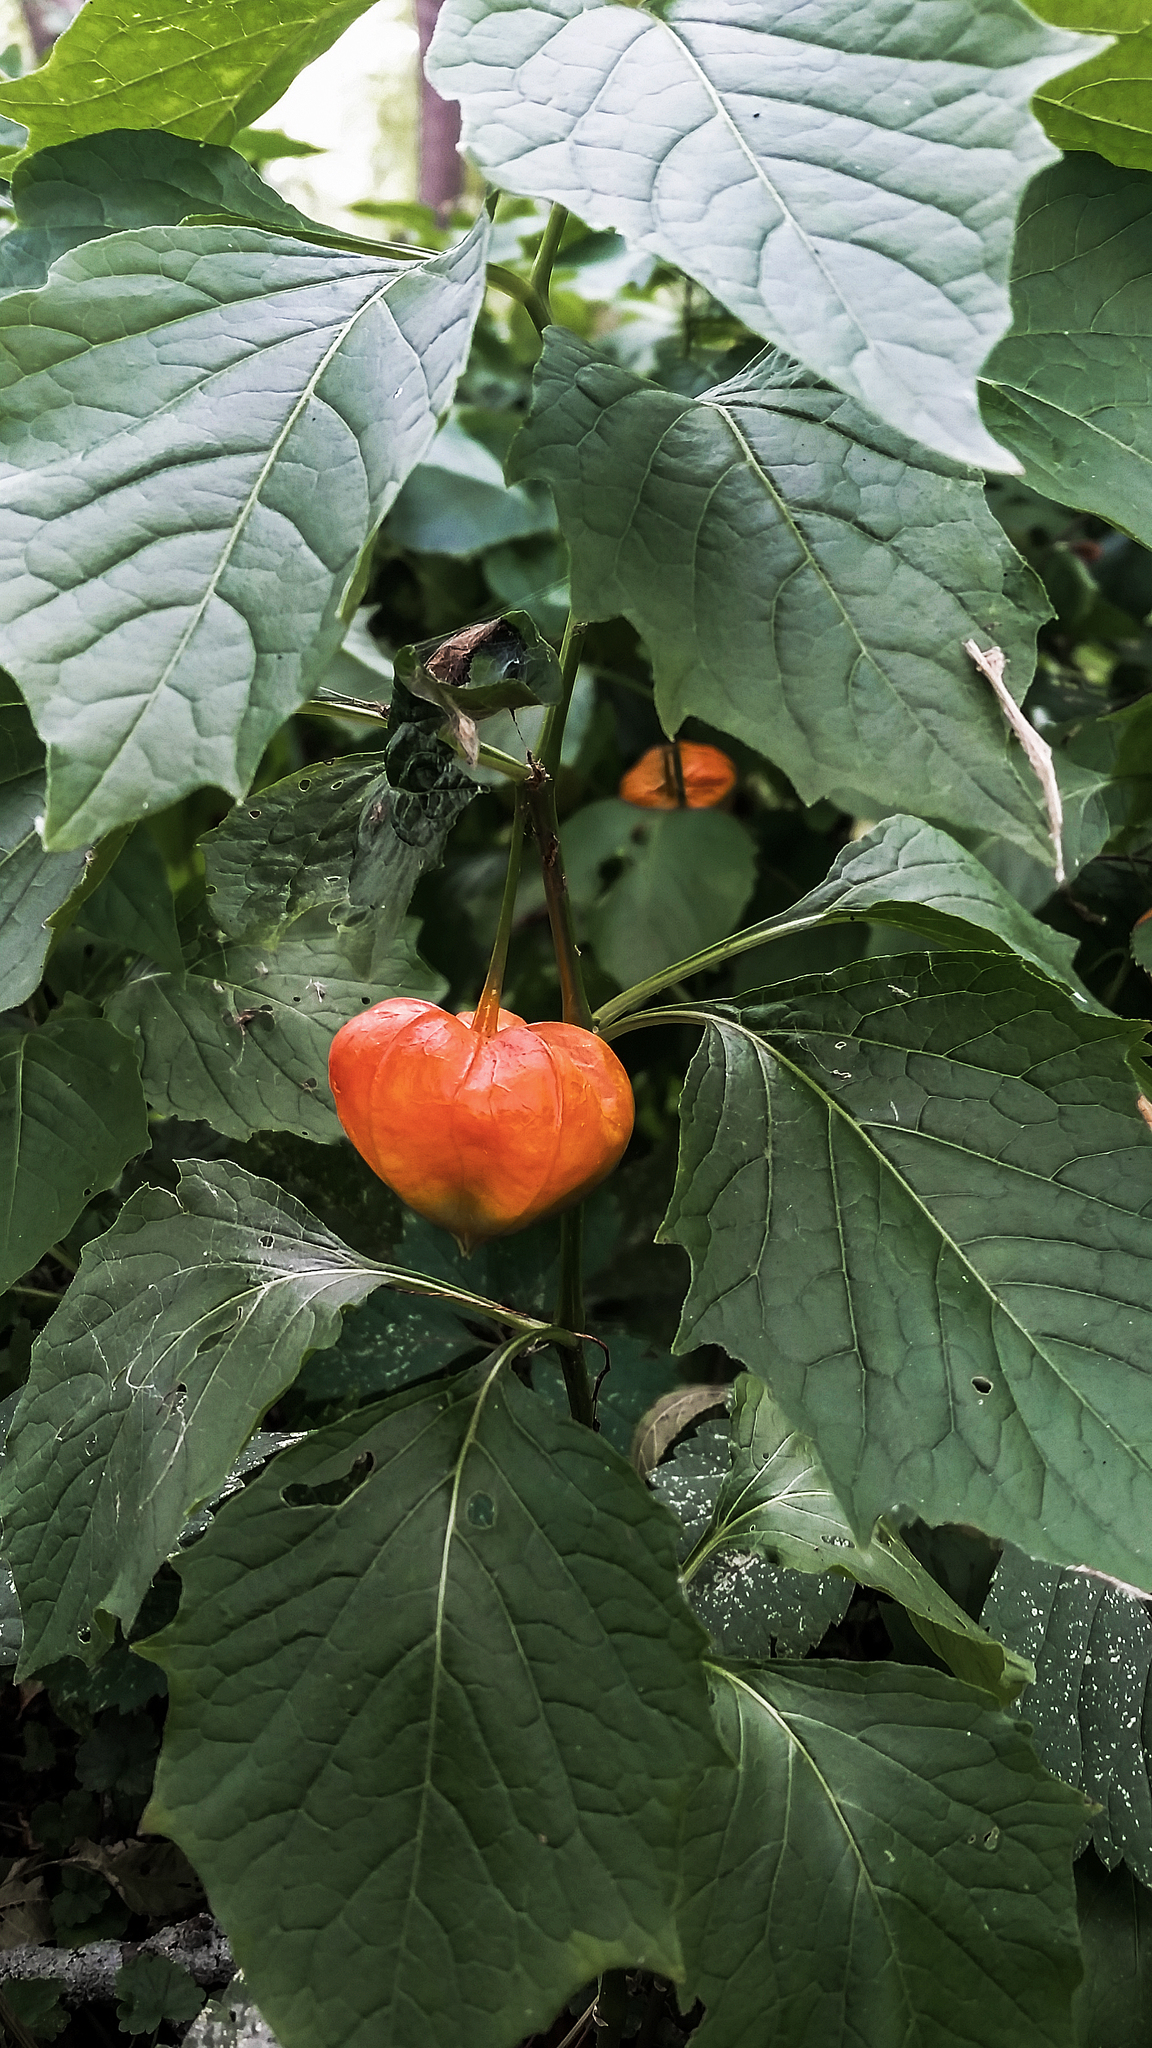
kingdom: Plantae
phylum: Tracheophyta
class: Magnoliopsida
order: Solanales
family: Solanaceae
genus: Alkekengi
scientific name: Alkekengi officinarum
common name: Japanese-lantern
